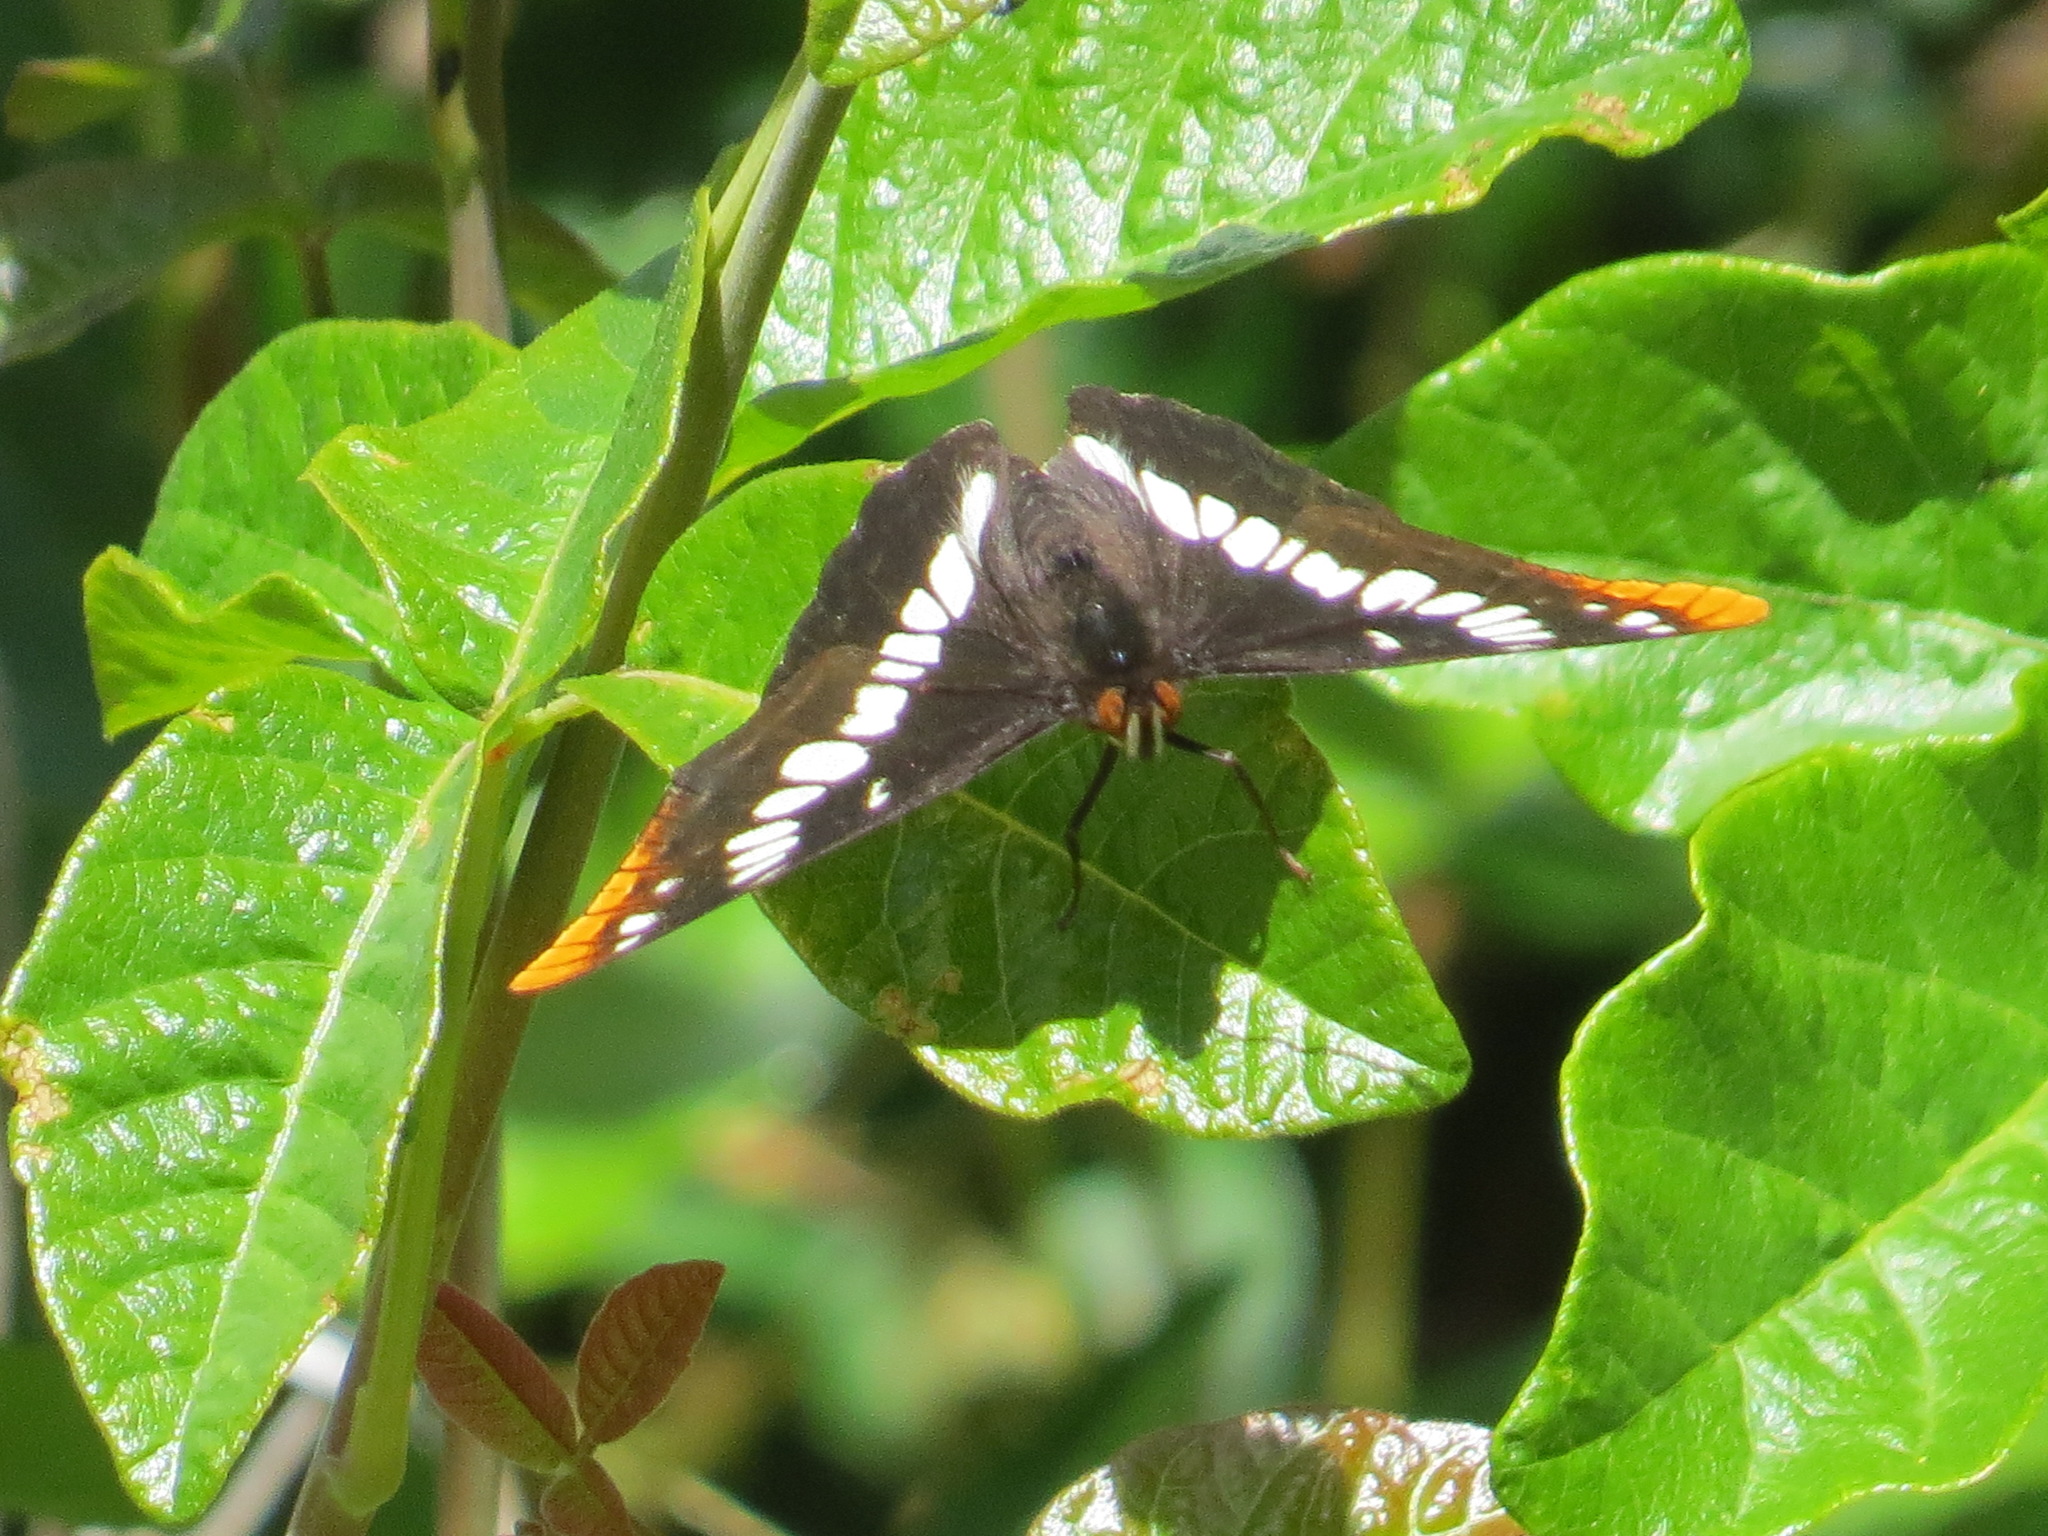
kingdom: Animalia
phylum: Arthropoda
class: Insecta
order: Lepidoptera
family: Nymphalidae
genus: Limenitis
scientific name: Limenitis lorquini
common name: Lorquin's admiral
